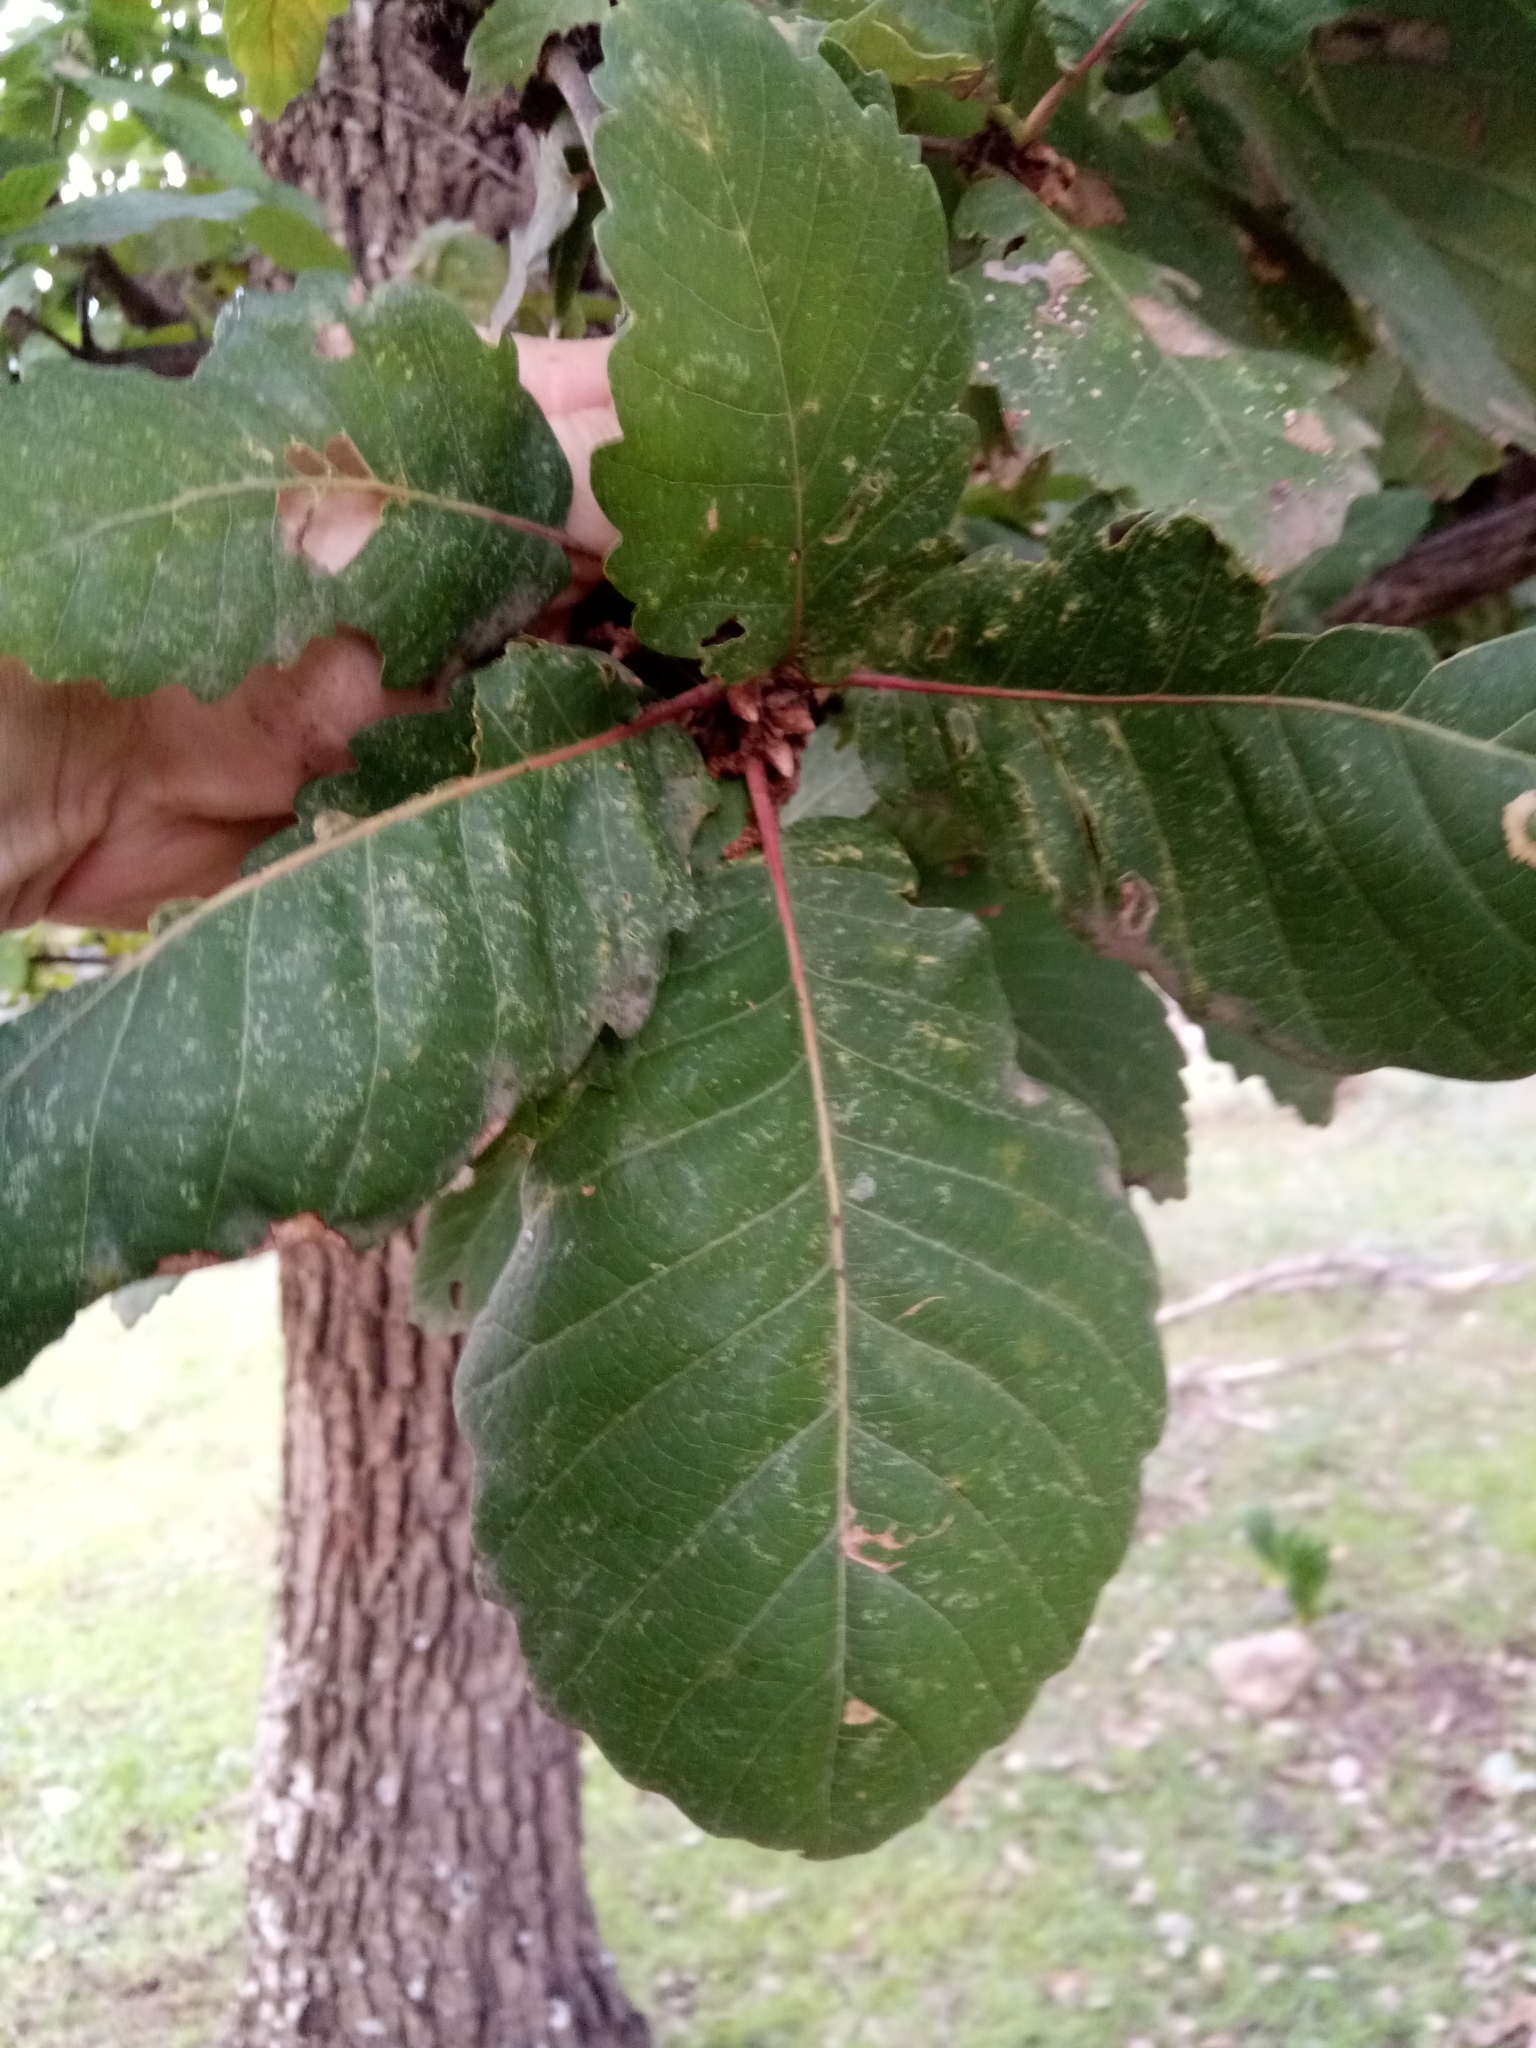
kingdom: Plantae
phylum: Tracheophyta
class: Magnoliopsida
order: Fagales
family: Fagaceae
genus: Quercus
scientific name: Quercus canariensis
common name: Algerian oak
